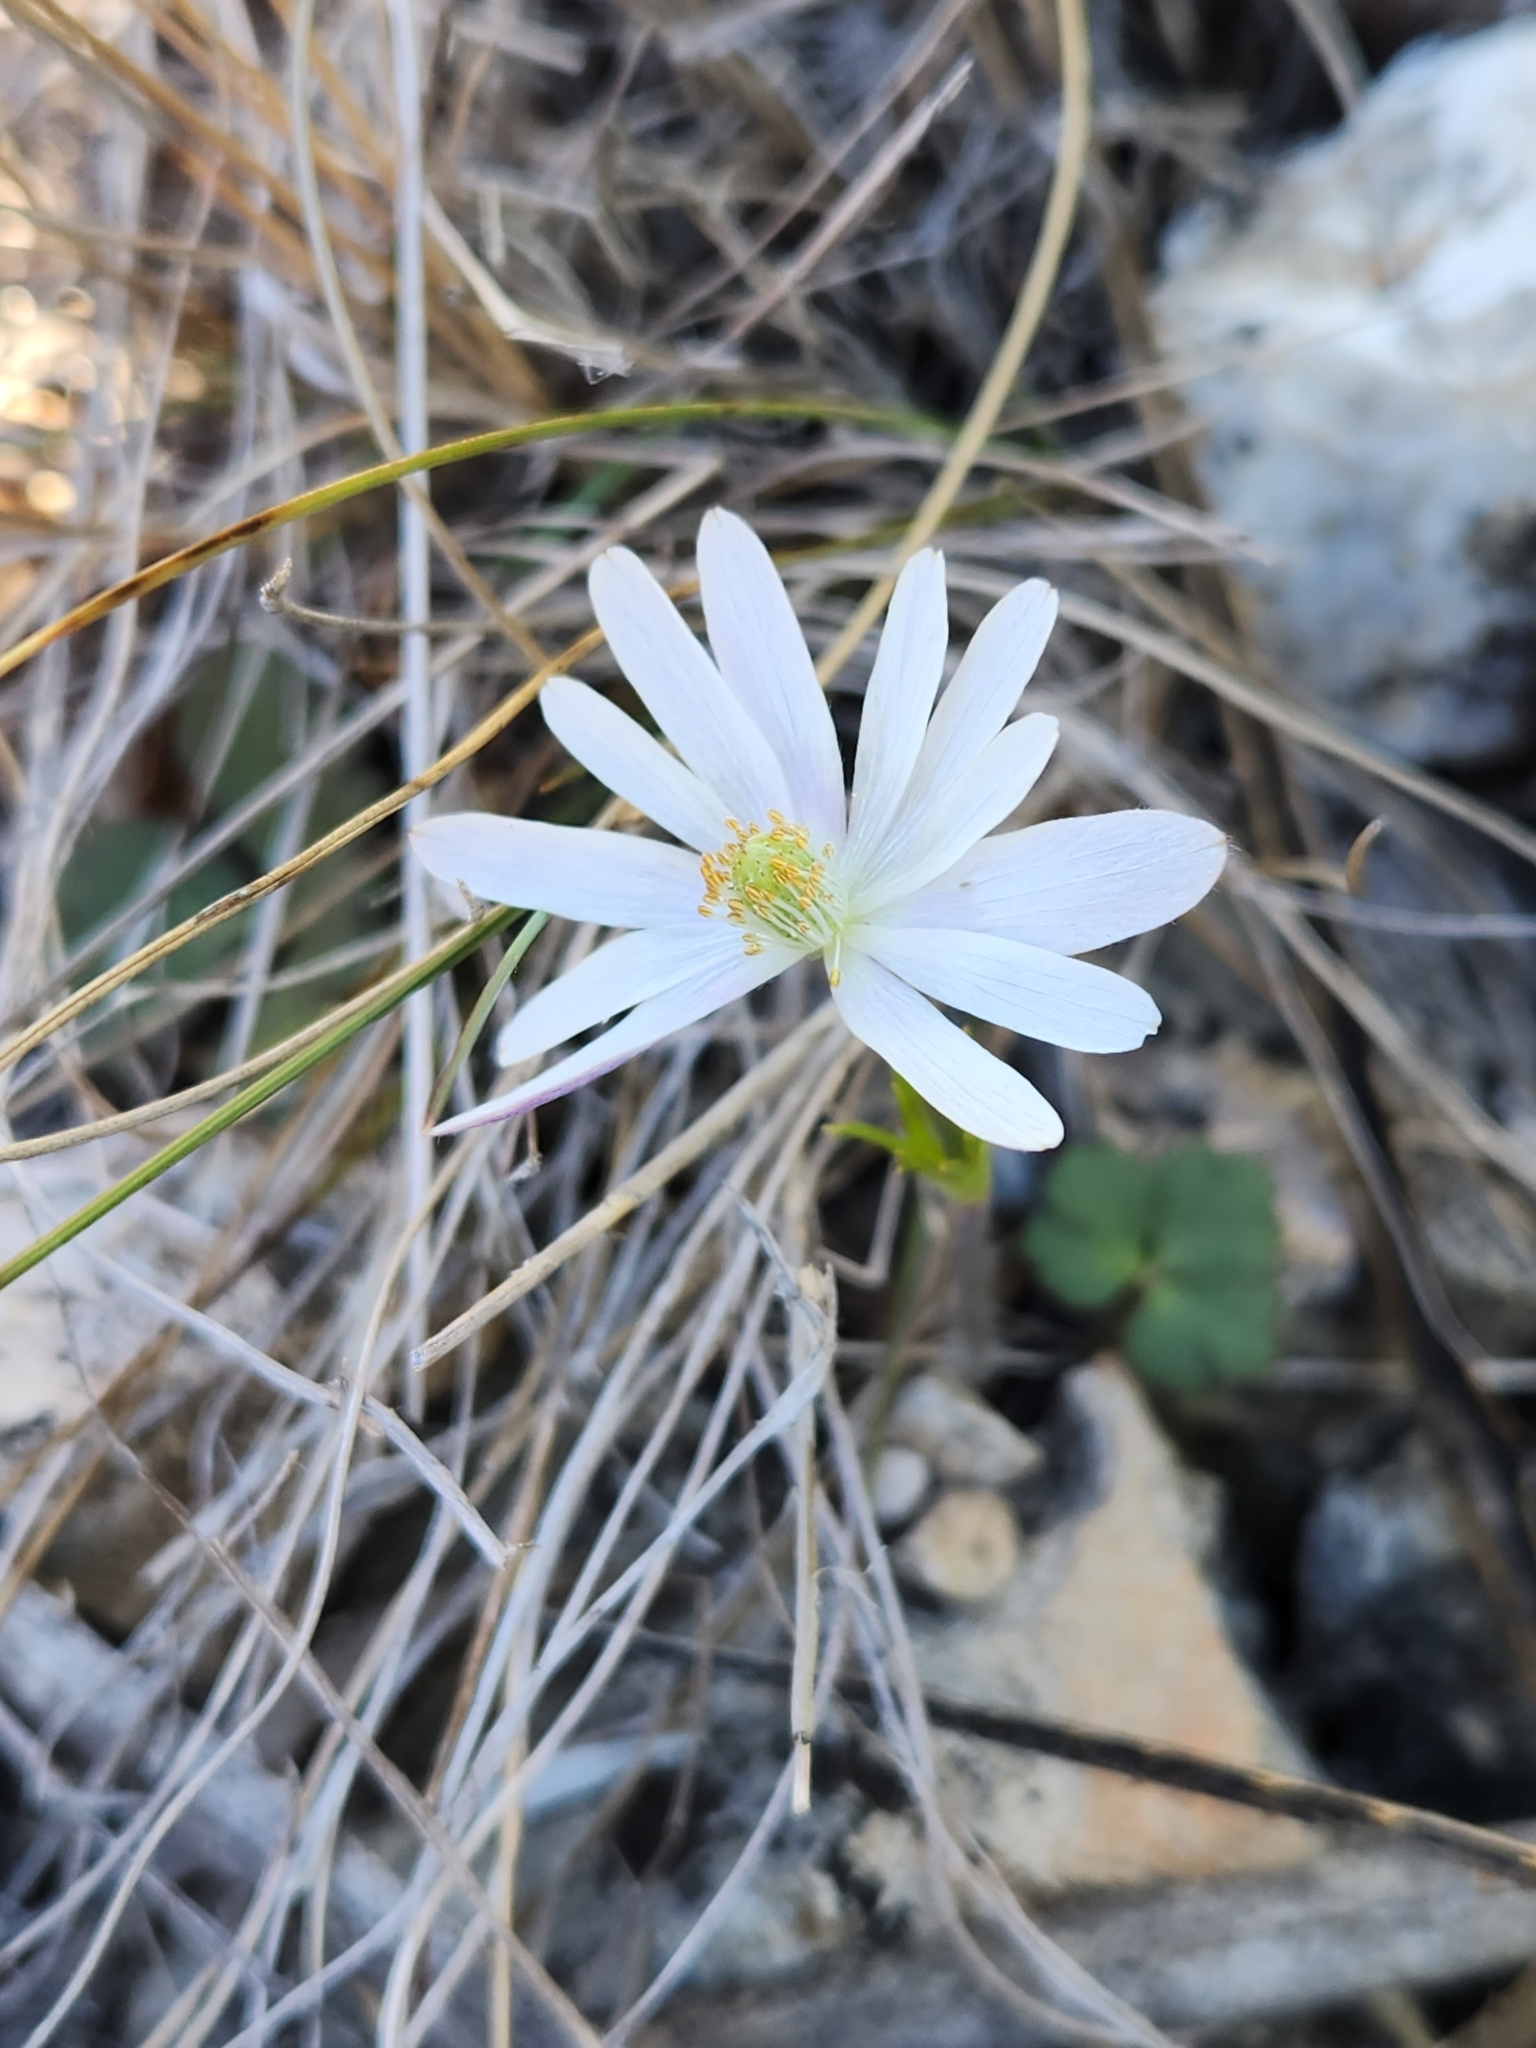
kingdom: Plantae
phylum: Tracheophyta
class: Magnoliopsida
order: Ranunculales
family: Ranunculaceae
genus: Anemone
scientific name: Anemone berlandieri
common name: Ten-petal anemone
